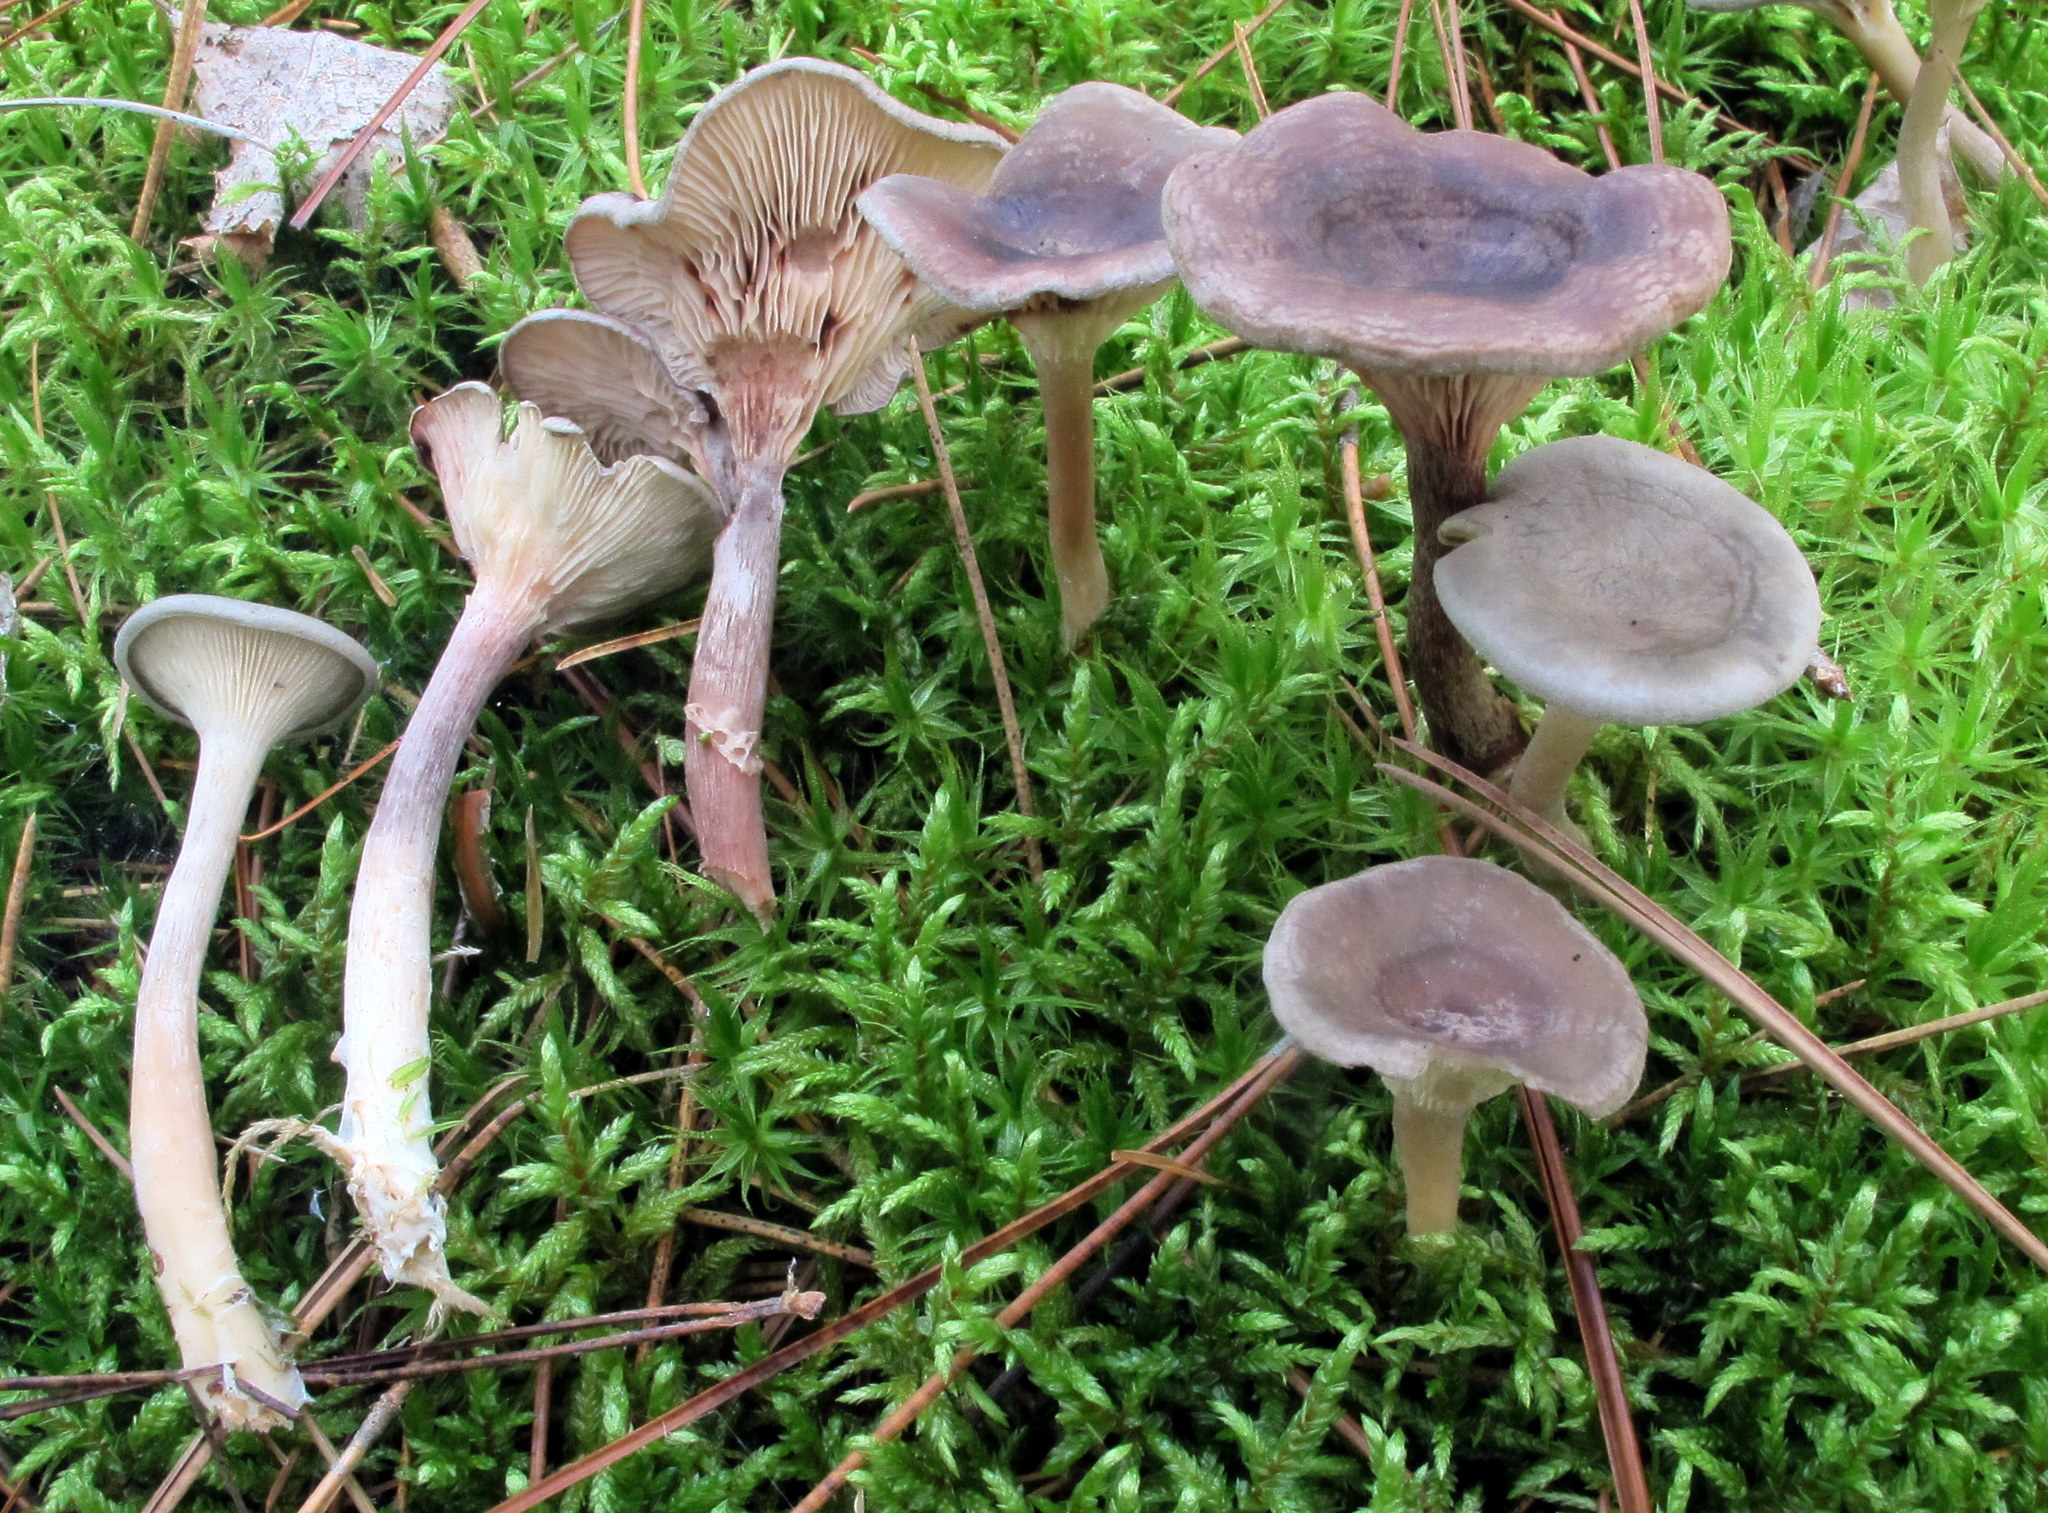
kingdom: Fungi
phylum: Basidiomycota
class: Agaricomycetes
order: Agaricales
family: Hygrophoraceae
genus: Cantharellula
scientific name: Cantharellula umbonata
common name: The humpback
